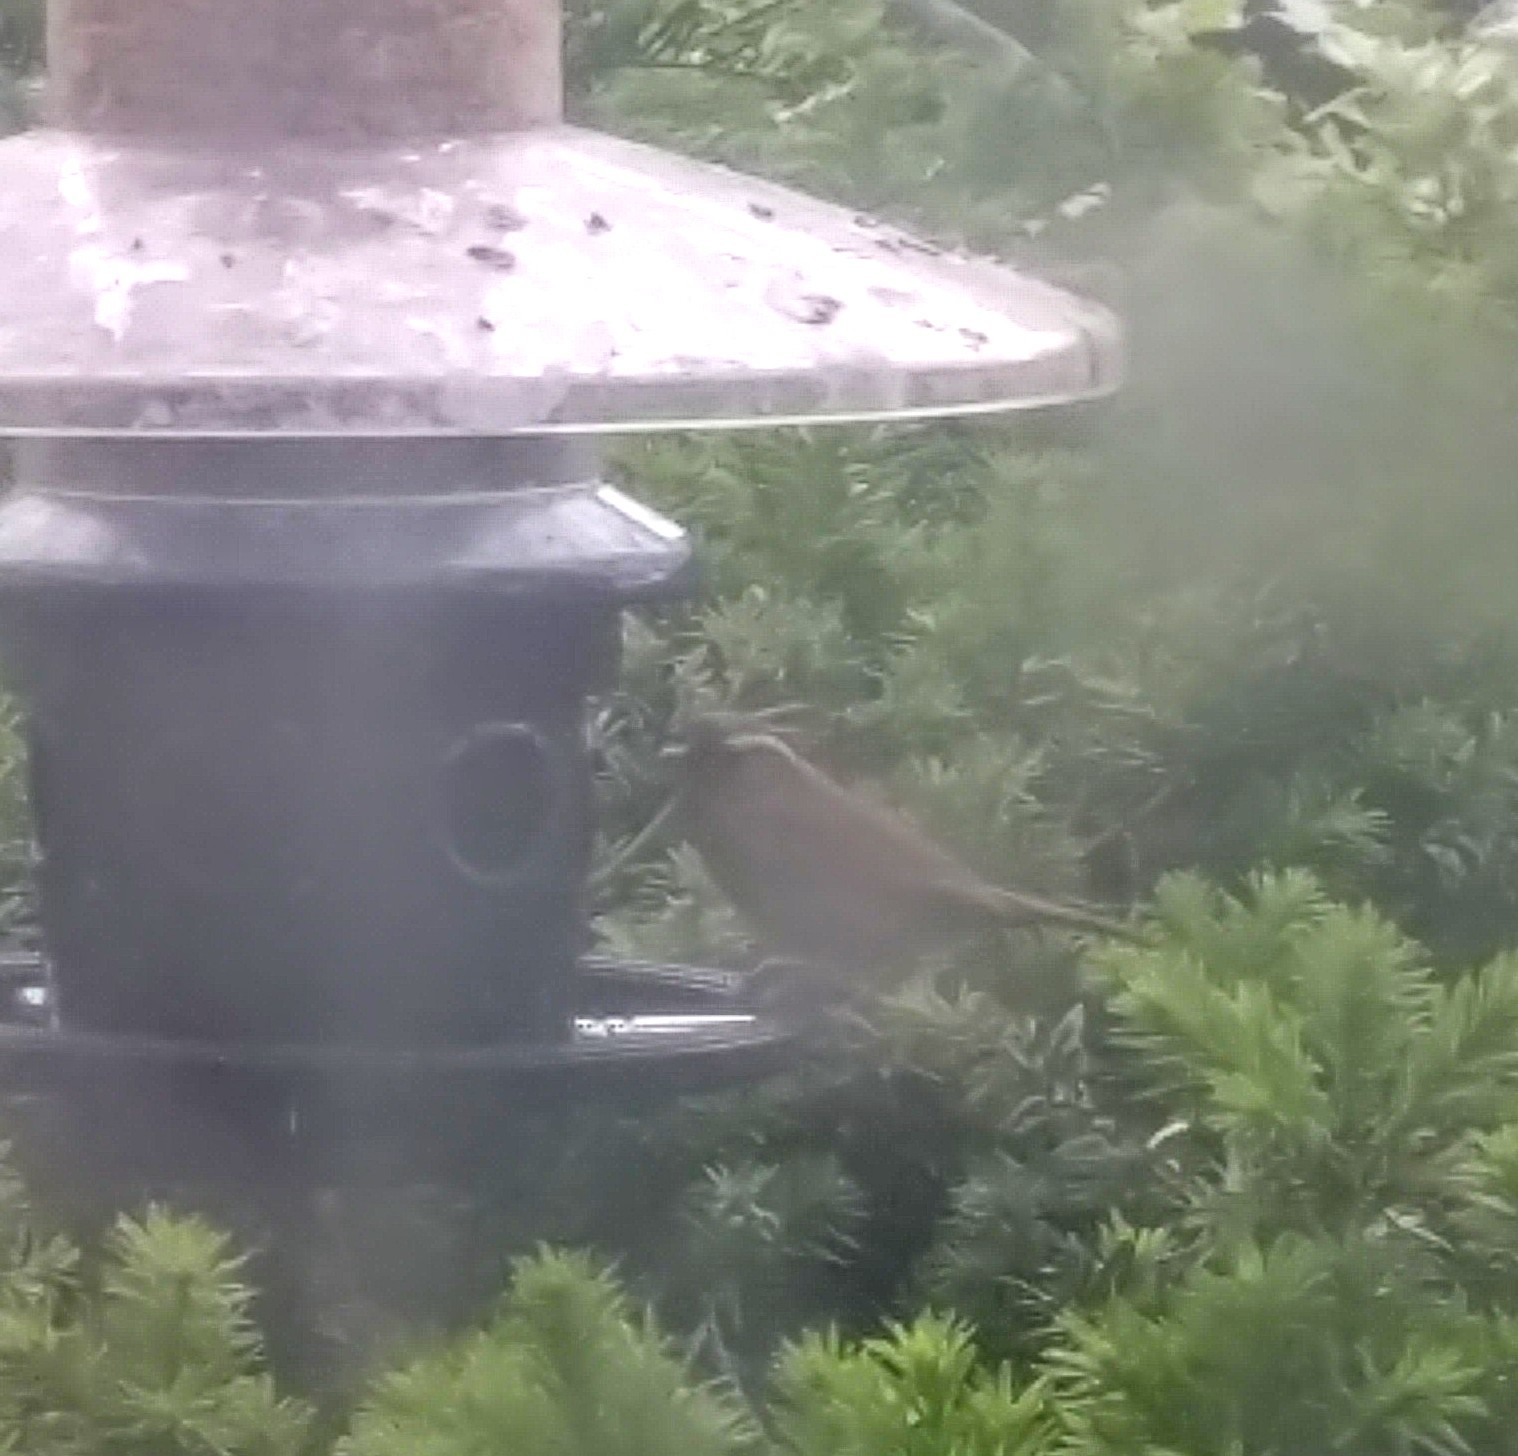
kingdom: Animalia
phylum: Chordata
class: Aves
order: Passeriformes
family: Troglodytidae
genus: Thryothorus
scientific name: Thryothorus ludovicianus
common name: Carolina wren
